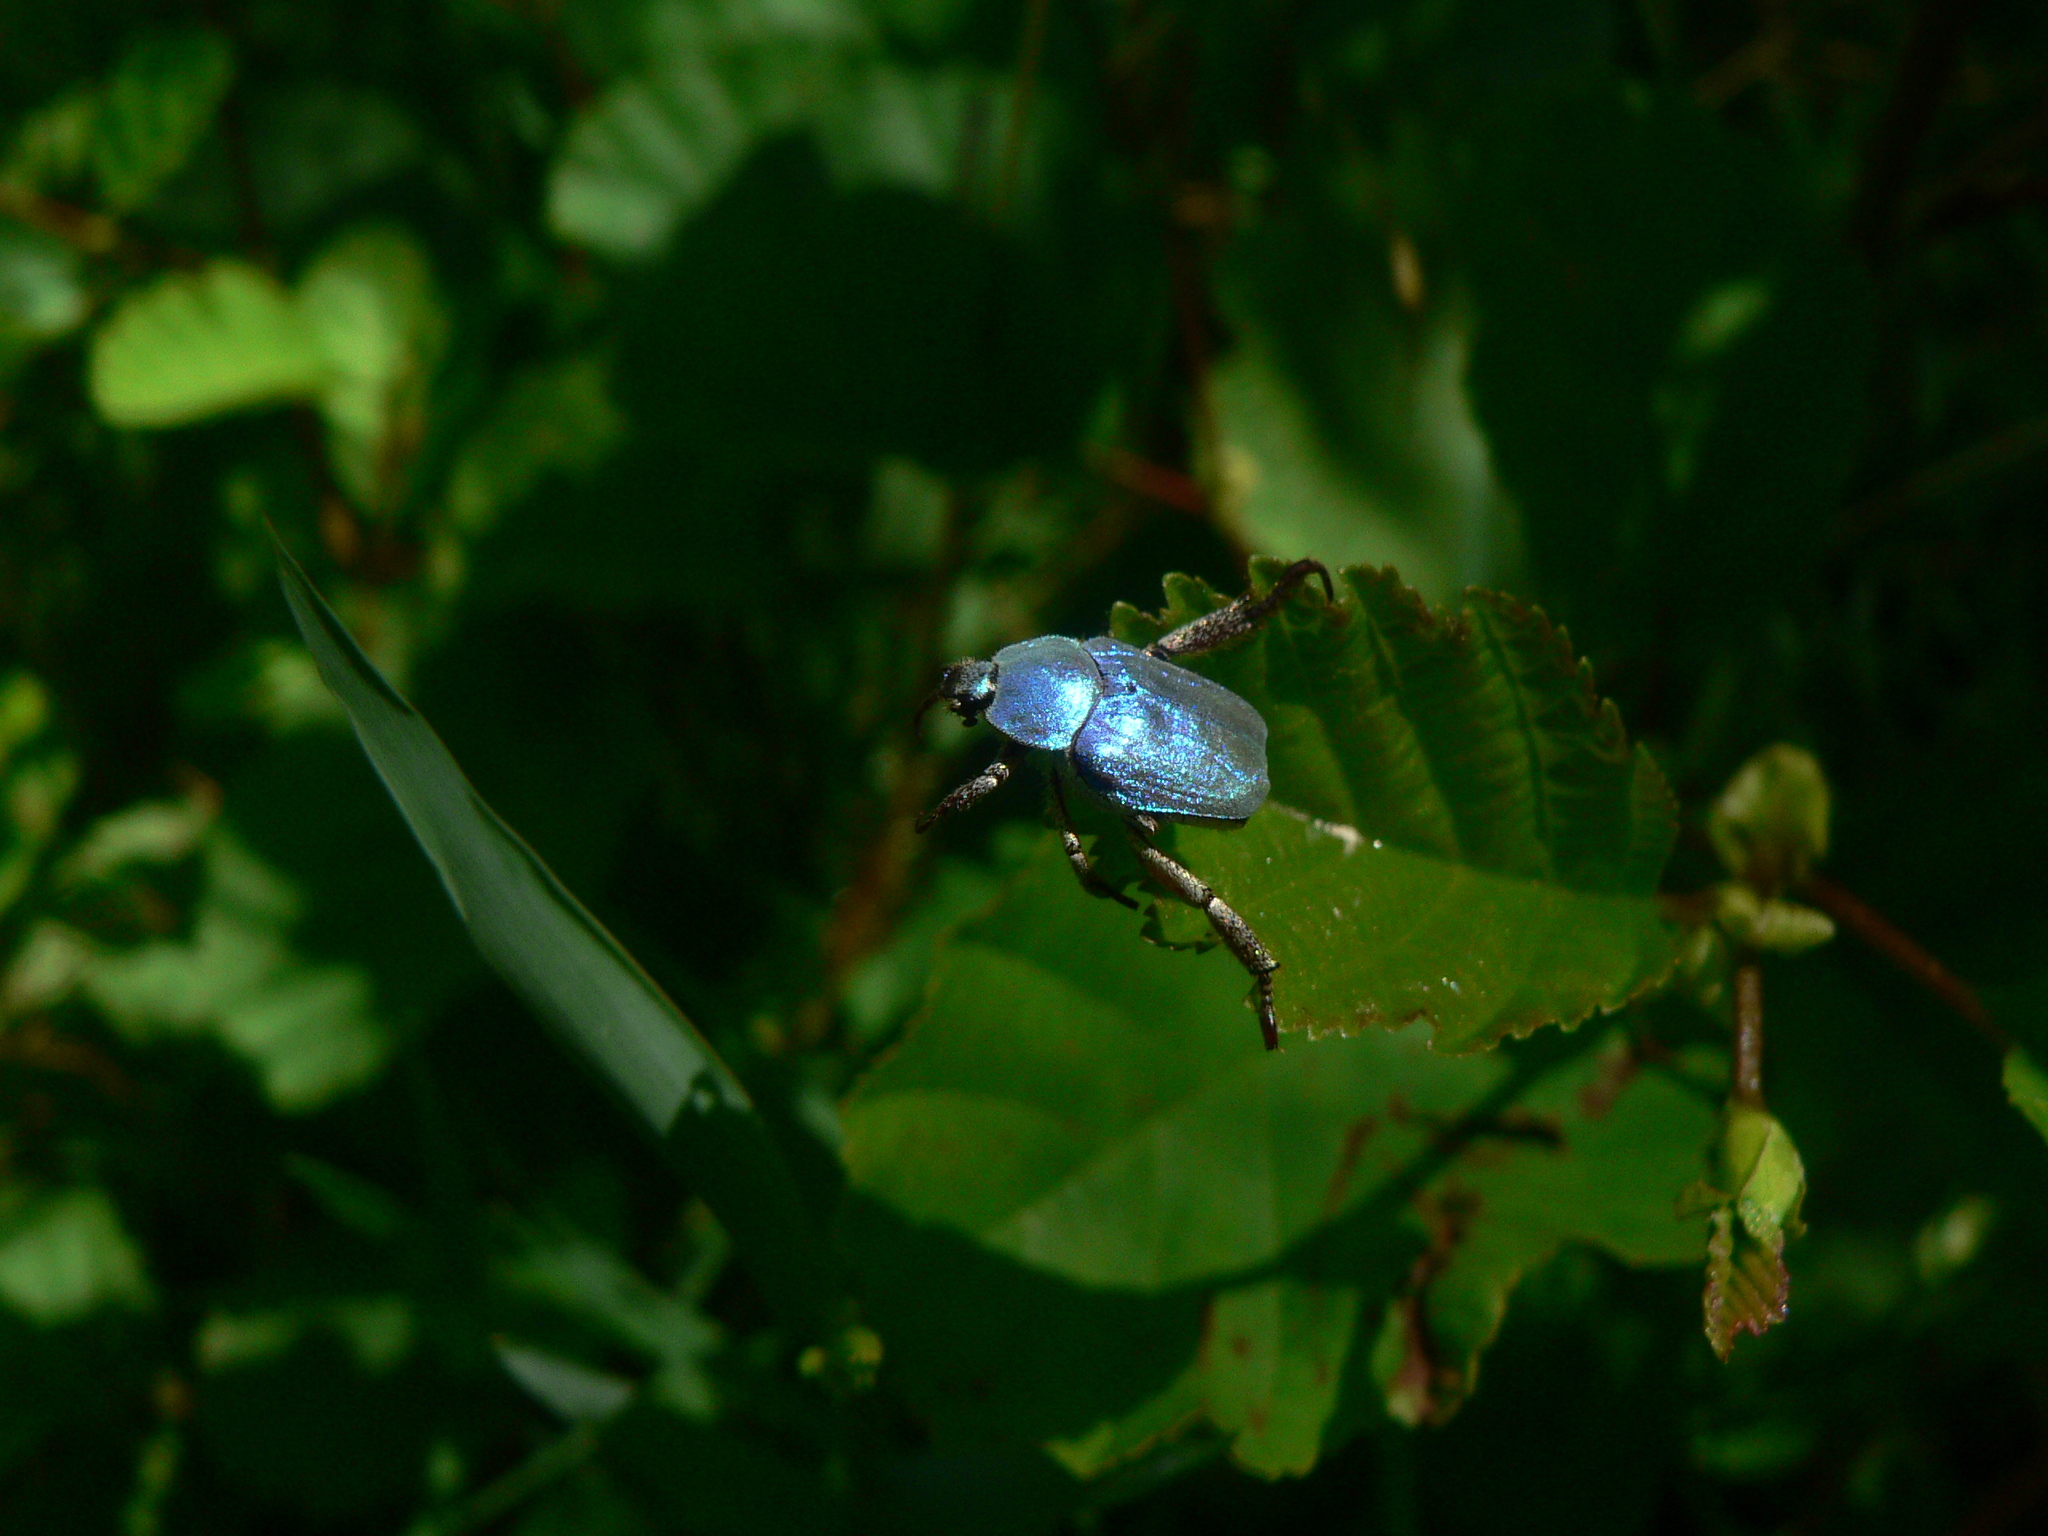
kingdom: Animalia
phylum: Arthropoda
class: Insecta
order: Coleoptera
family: Scarabaeidae
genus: Hoplia
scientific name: Hoplia coerulea
